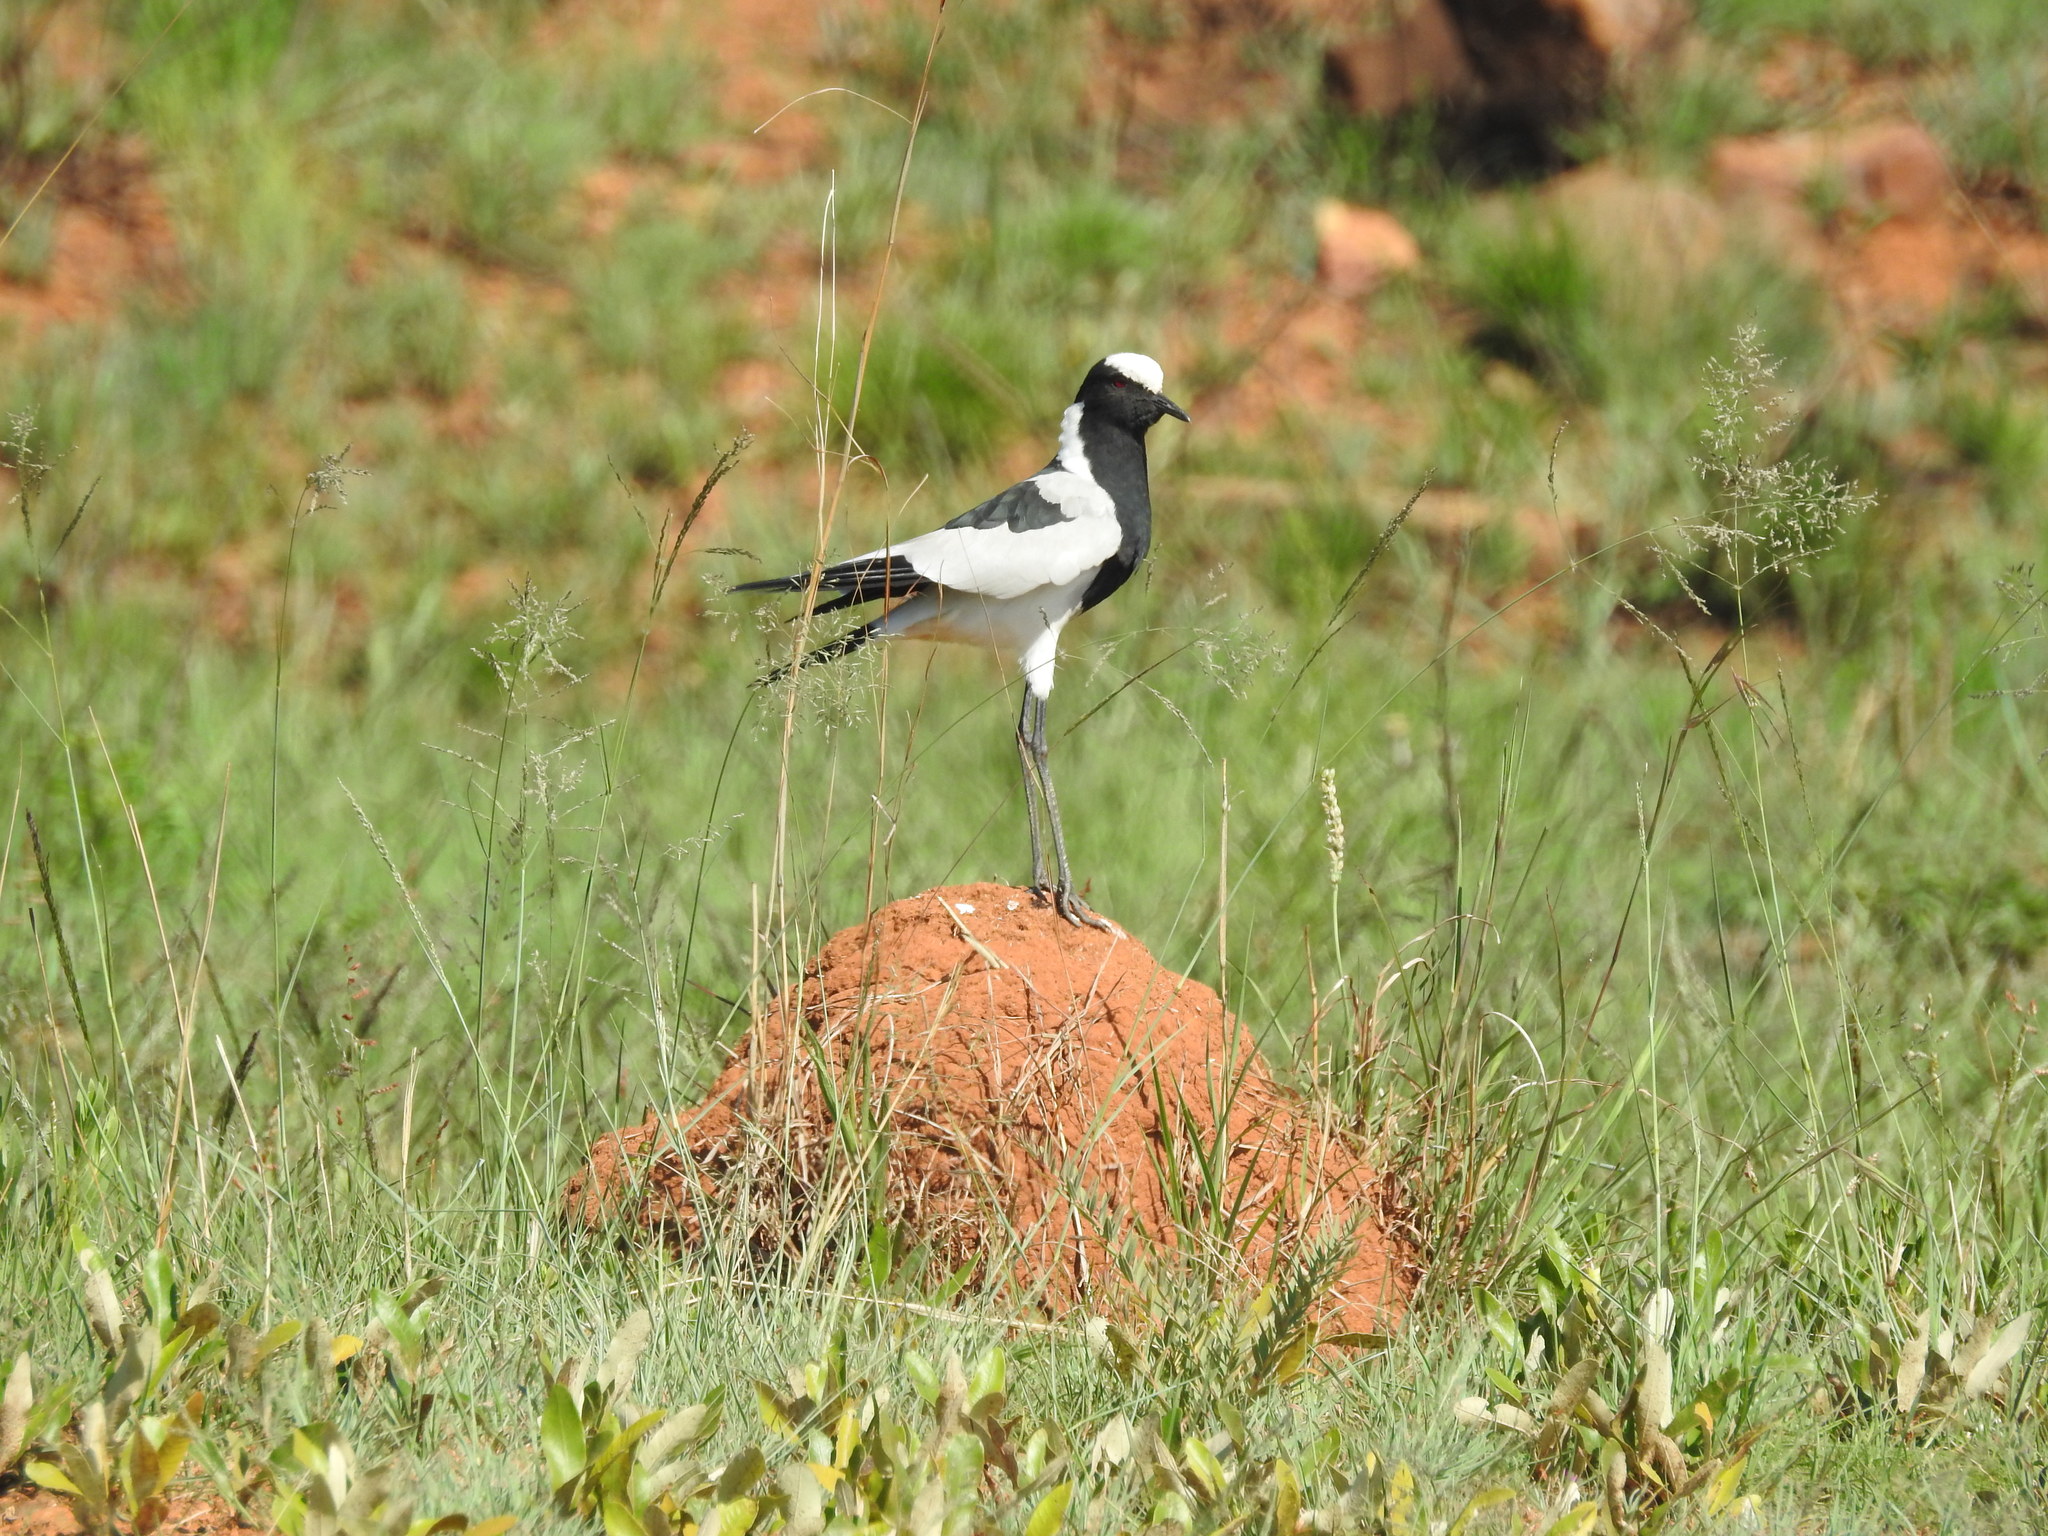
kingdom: Animalia
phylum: Chordata
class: Aves
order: Charadriiformes
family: Charadriidae
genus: Vanellus
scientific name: Vanellus armatus
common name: Blacksmith lapwing
